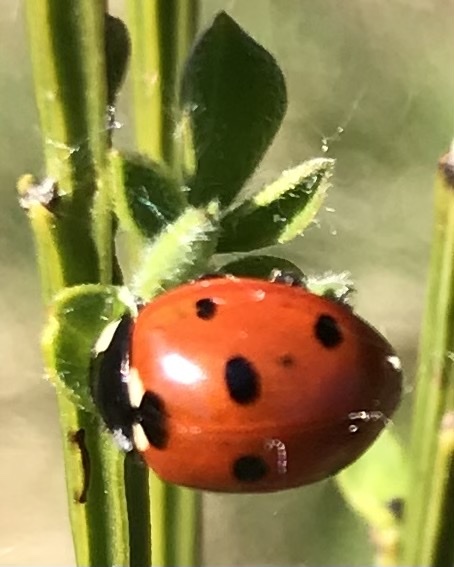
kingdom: Animalia
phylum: Arthropoda
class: Insecta
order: Coleoptera
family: Coccinellidae
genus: Coccinella
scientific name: Coccinella septempunctata
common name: Sevenspotted lady beetle
